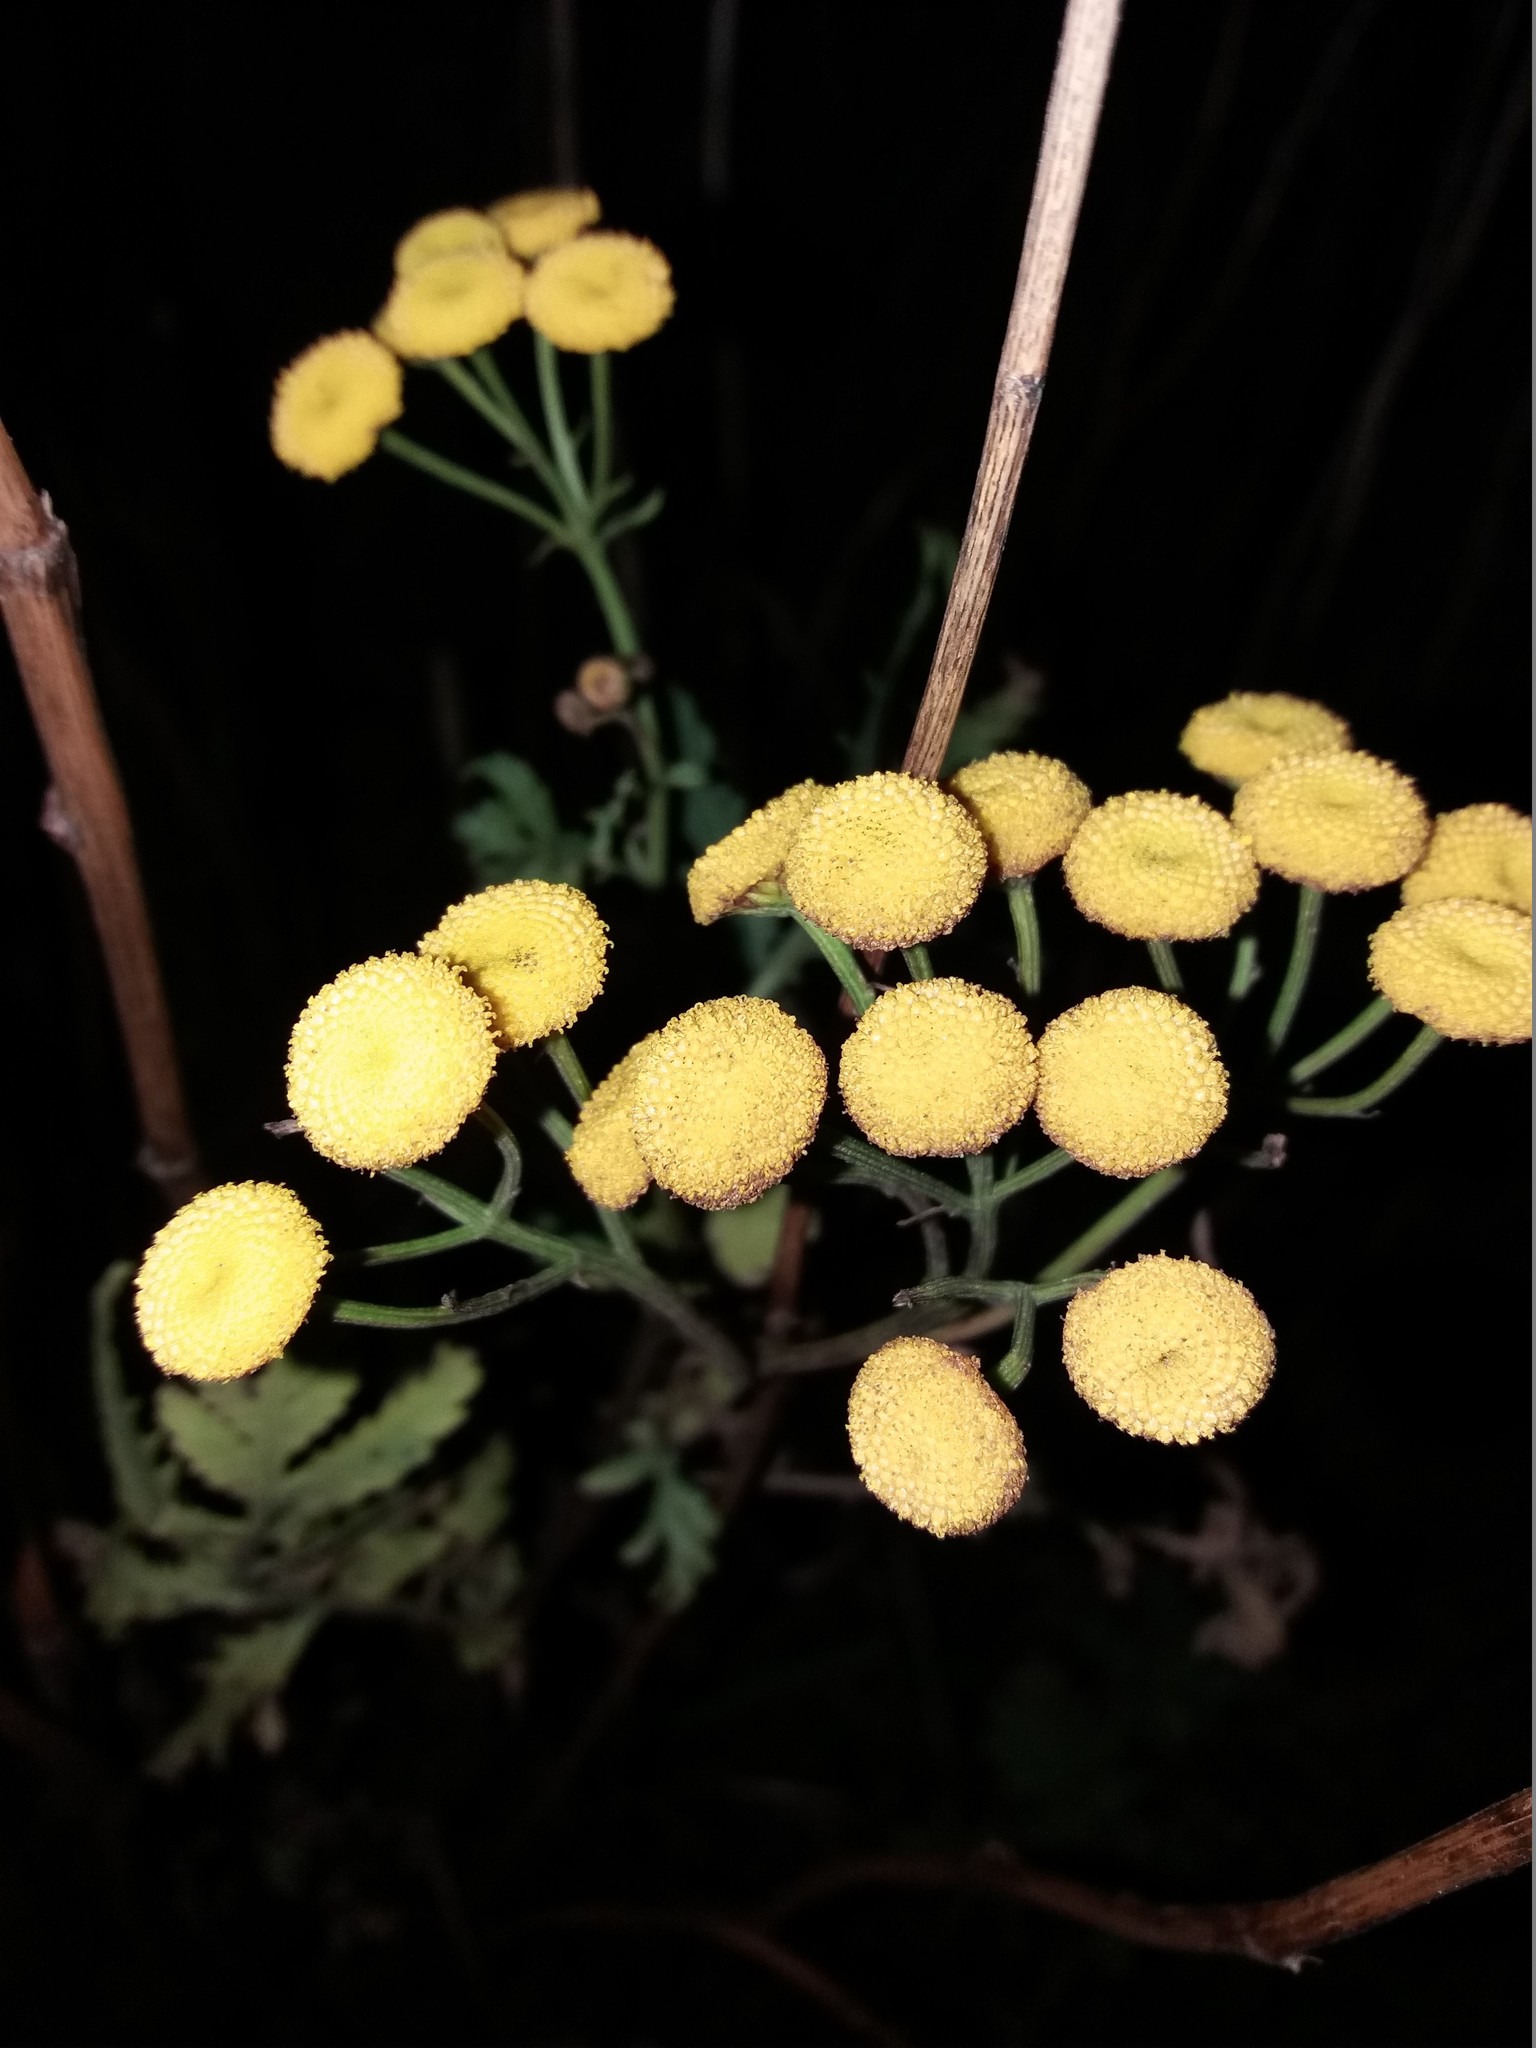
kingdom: Plantae
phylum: Tracheophyta
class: Magnoliopsida
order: Asterales
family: Asteraceae
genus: Tanacetum
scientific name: Tanacetum vulgare
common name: Common tansy
